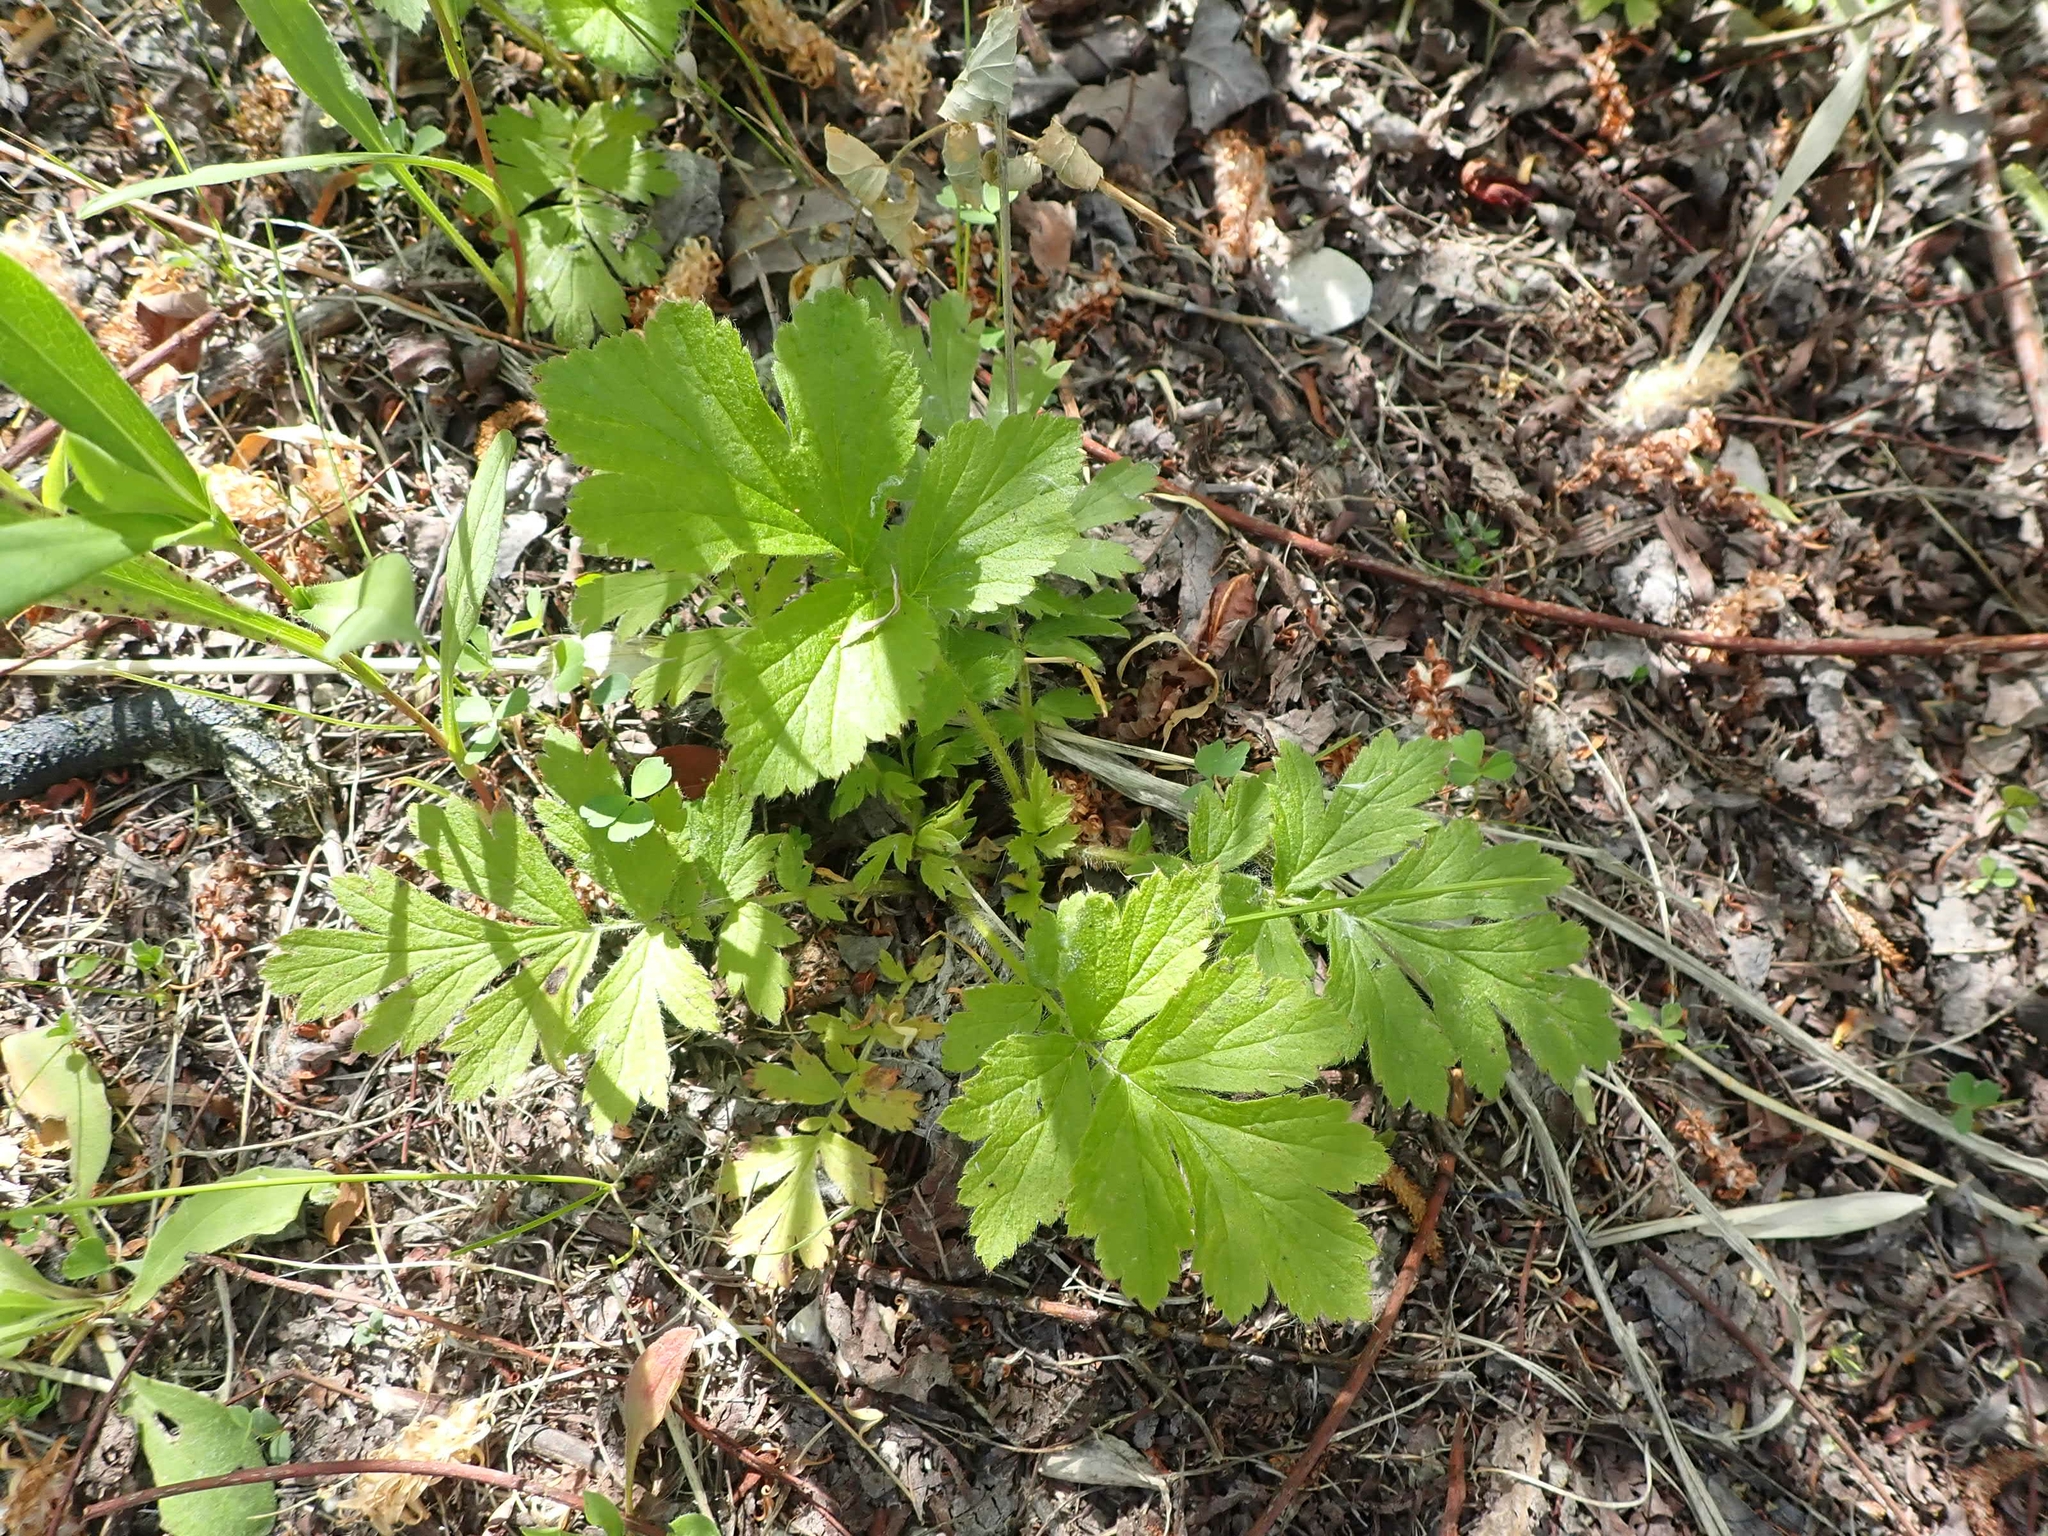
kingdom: Plantae
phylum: Tracheophyta
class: Magnoliopsida
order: Rosales
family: Rosaceae
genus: Geum
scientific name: Geum aleppicum
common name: Yellow avens
